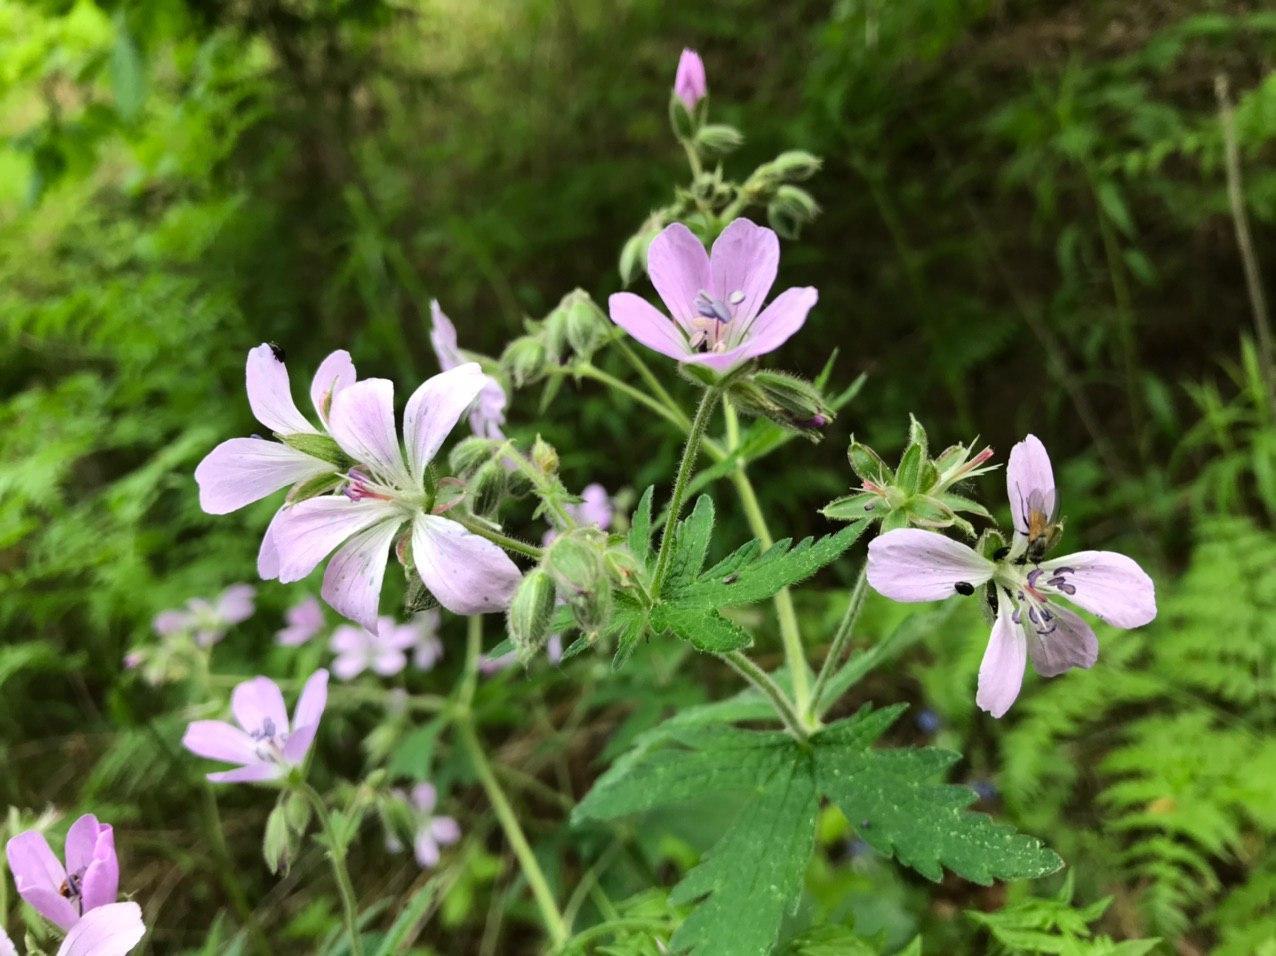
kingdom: Plantae
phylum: Tracheophyta
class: Magnoliopsida
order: Geraniales
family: Geraniaceae
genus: Geranium
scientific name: Geranium sylvaticum
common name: Wood crane's-bill
